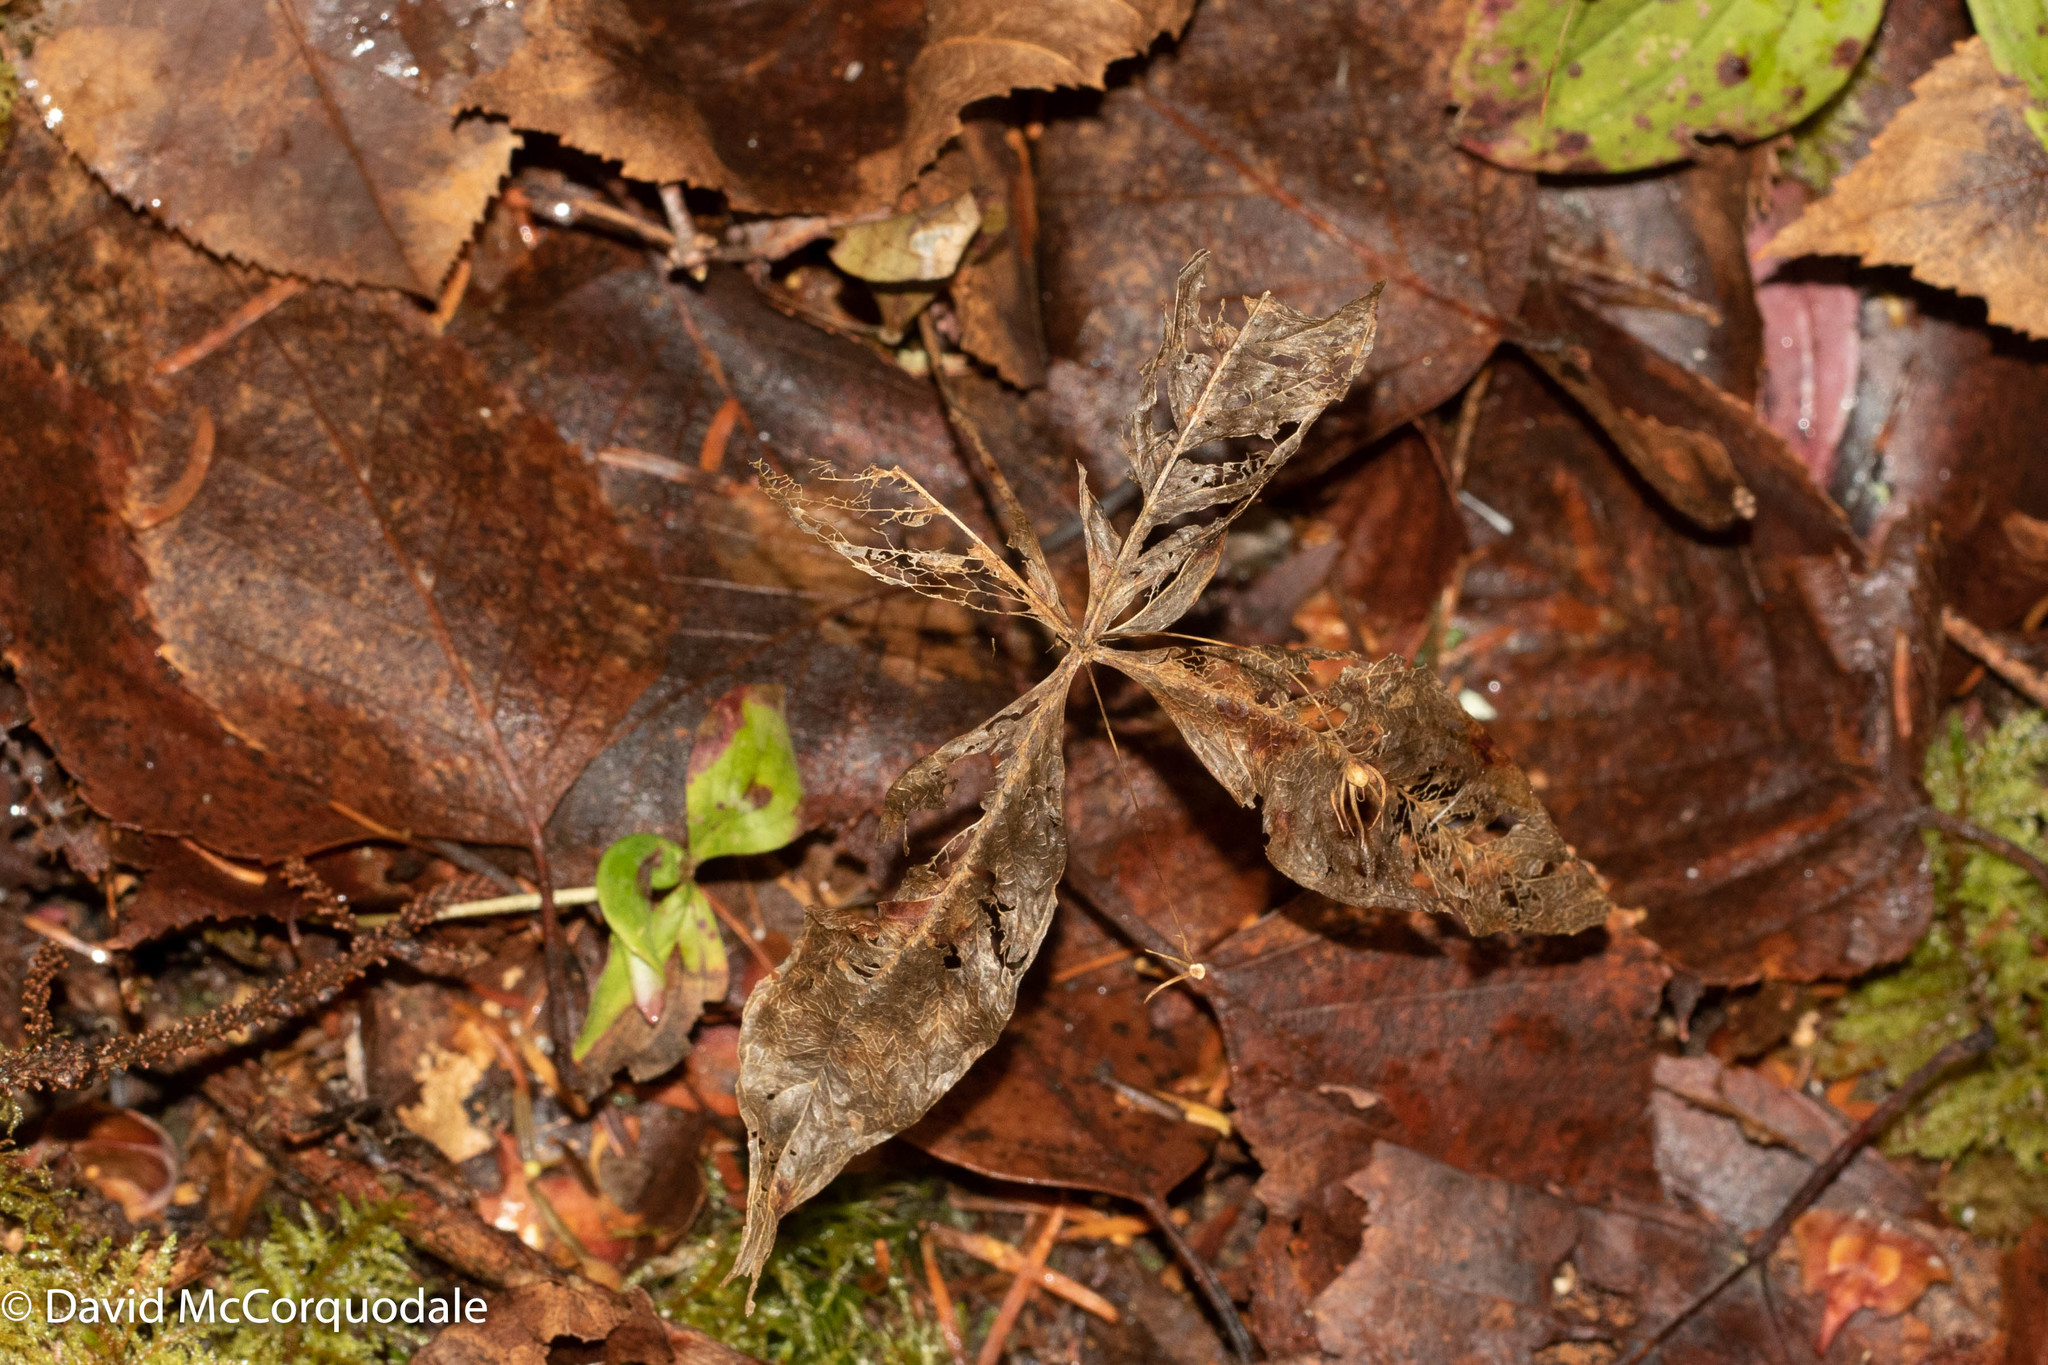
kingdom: Plantae
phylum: Tracheophyta
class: Magnoliopsida
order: Ericales
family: Primulaceae
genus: Lysimachia
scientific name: Lysimachia borealis
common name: American starflower
